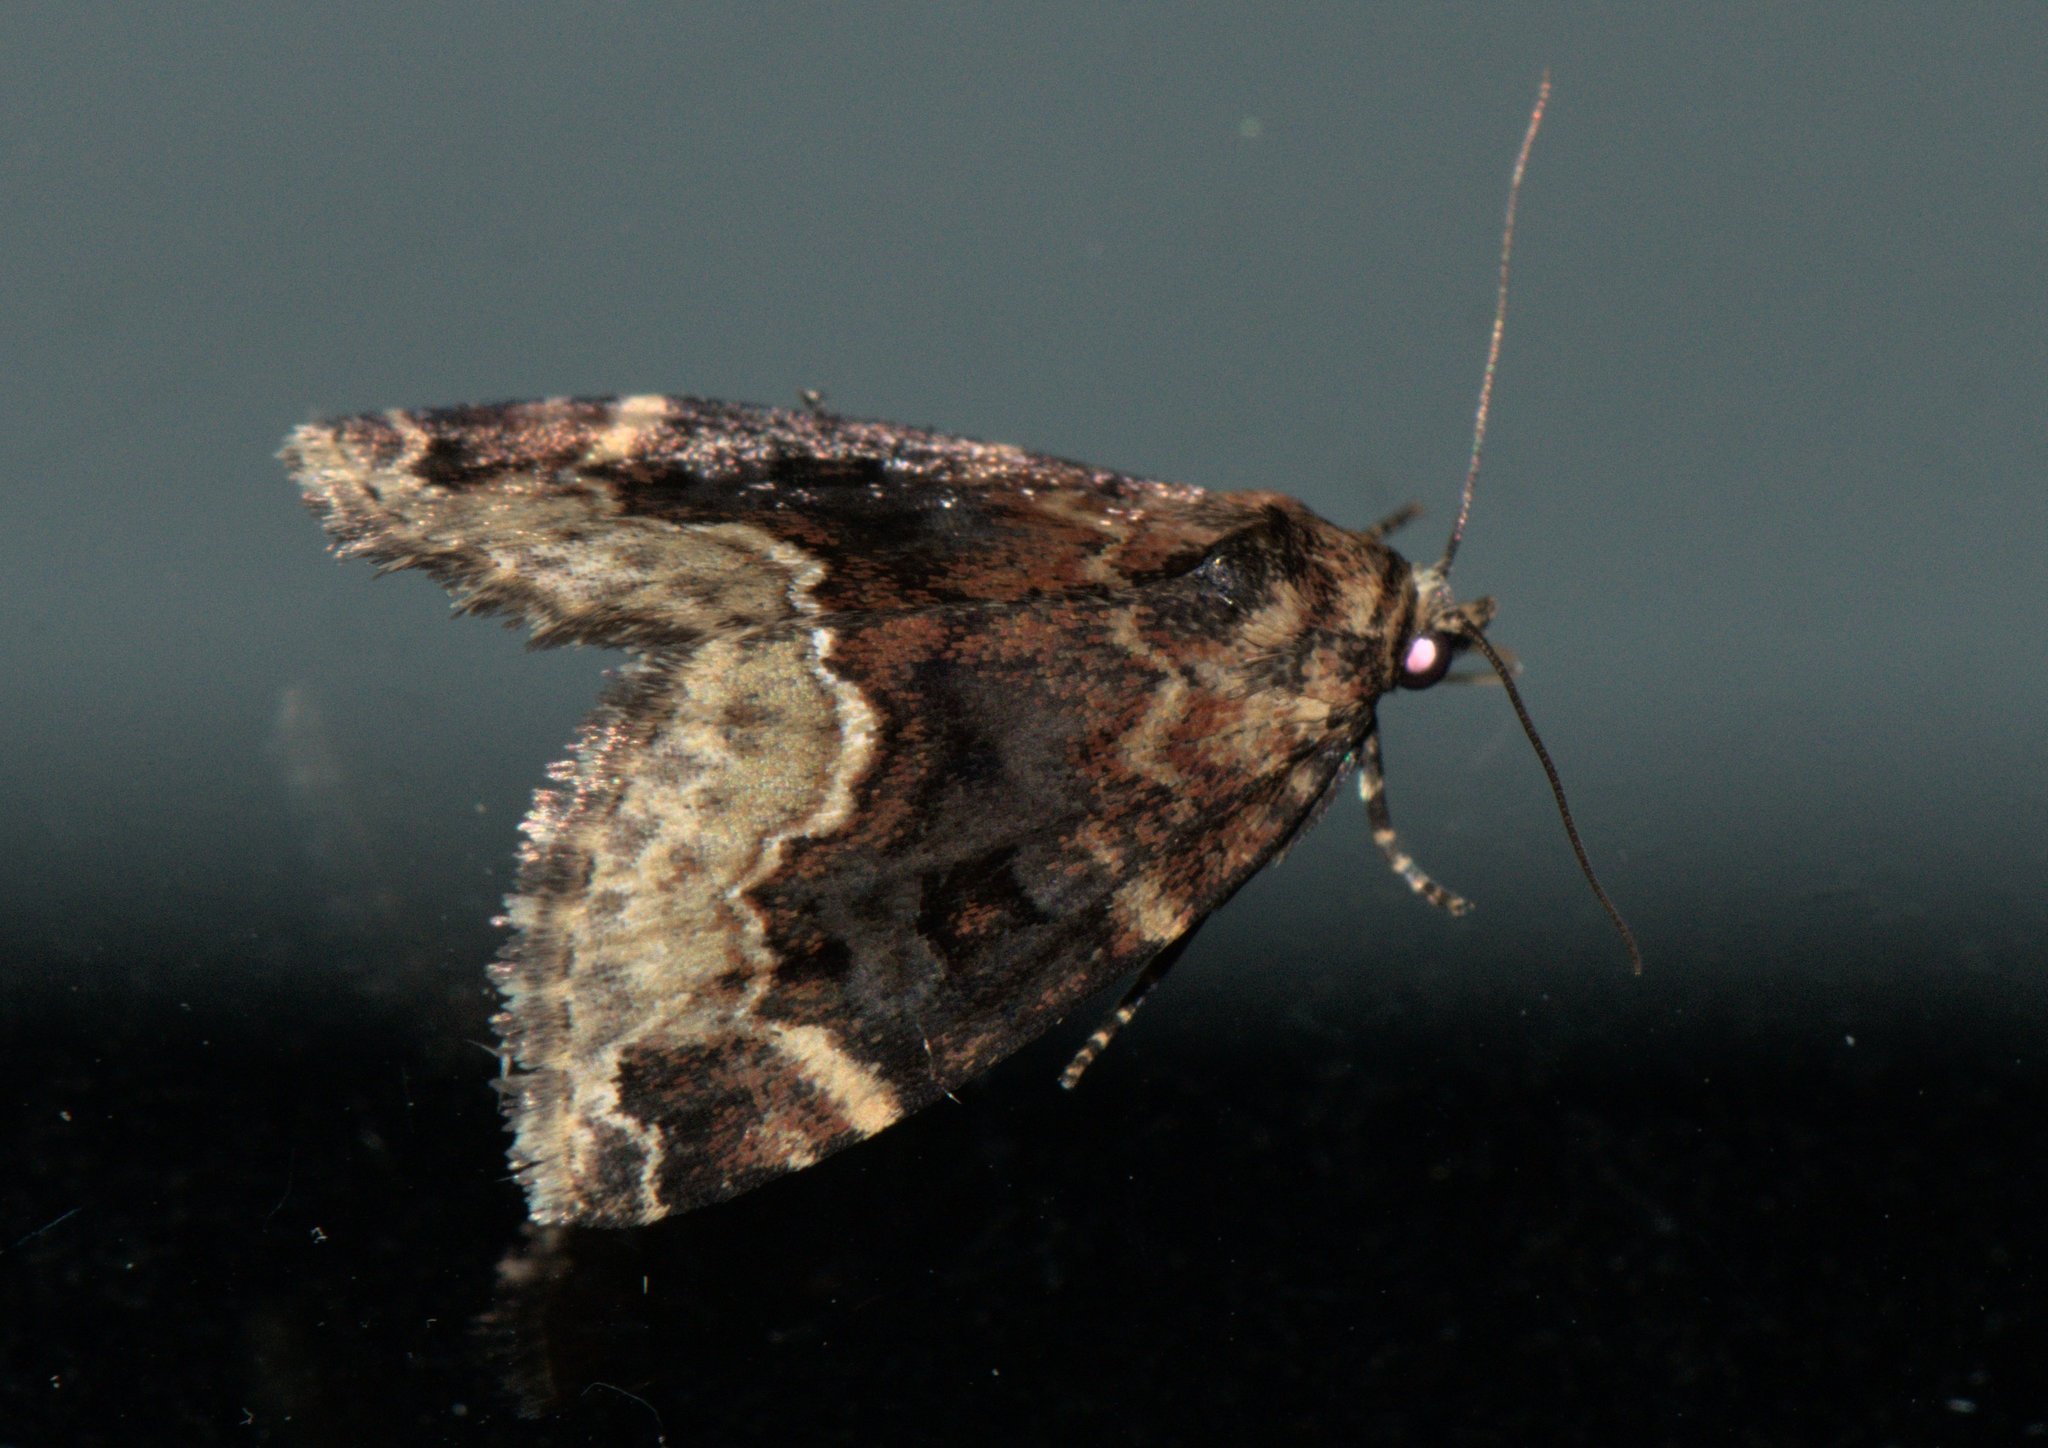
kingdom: Animalia
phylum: Arthropoda
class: Insecta
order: Lepidoptera
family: Erebidae
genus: Koyaga
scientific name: Koyaga
